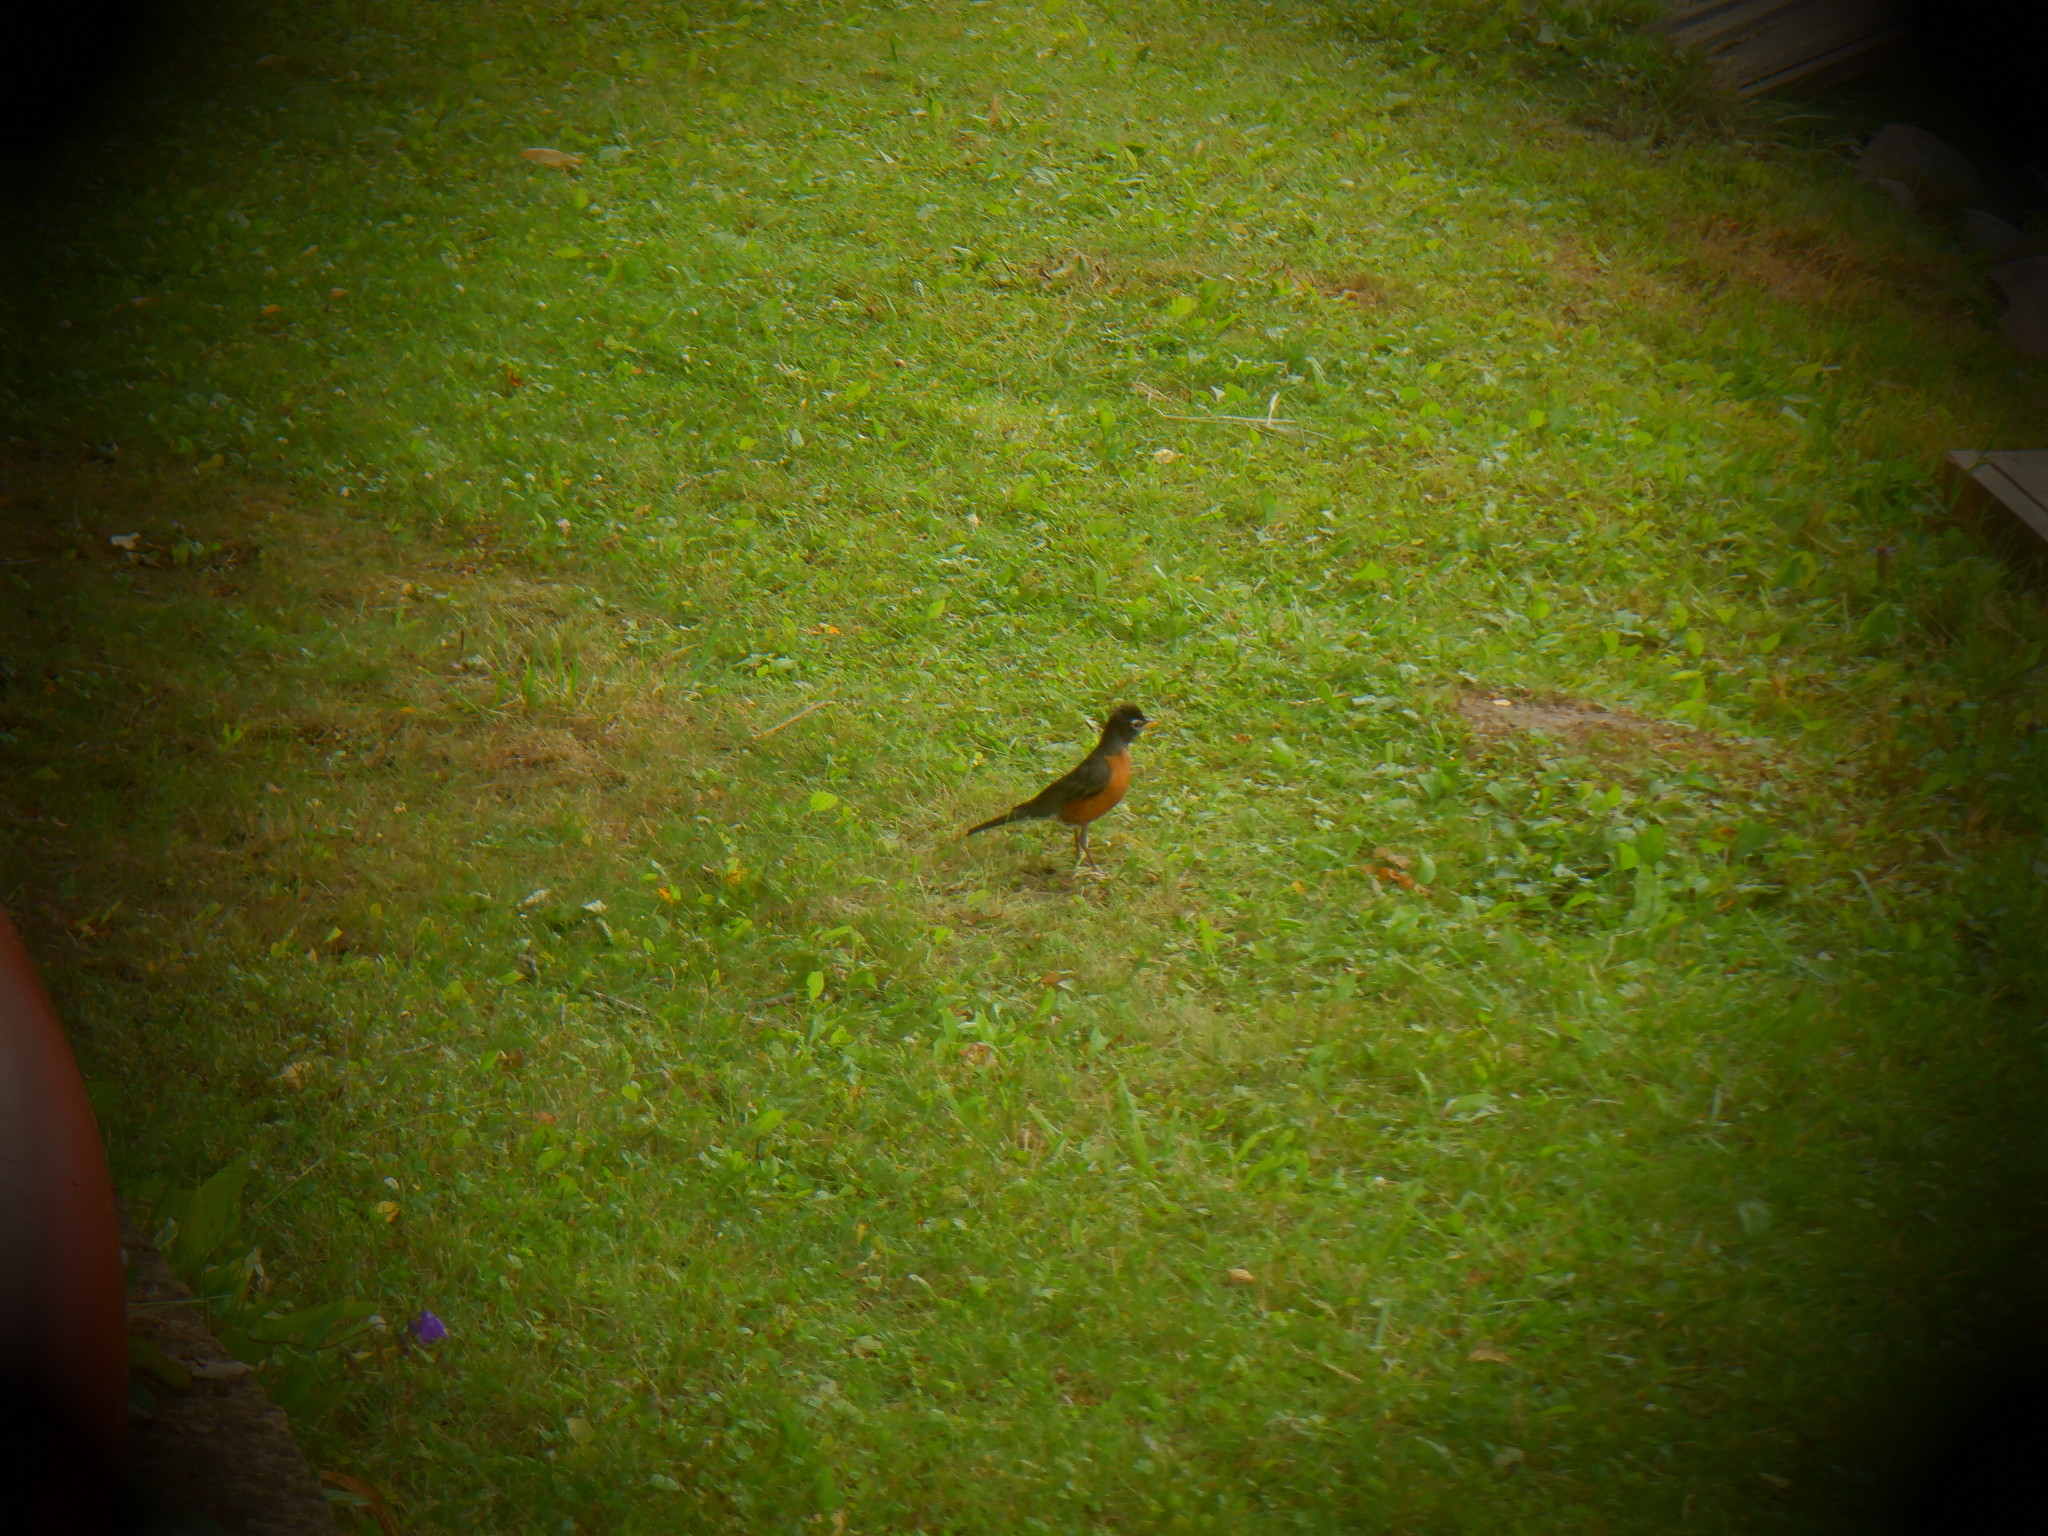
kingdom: Animalia
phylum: Chordata
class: Aves
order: Passeriformes
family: Turdidae
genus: Turdus
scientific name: Turdus migratorius
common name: American robin
